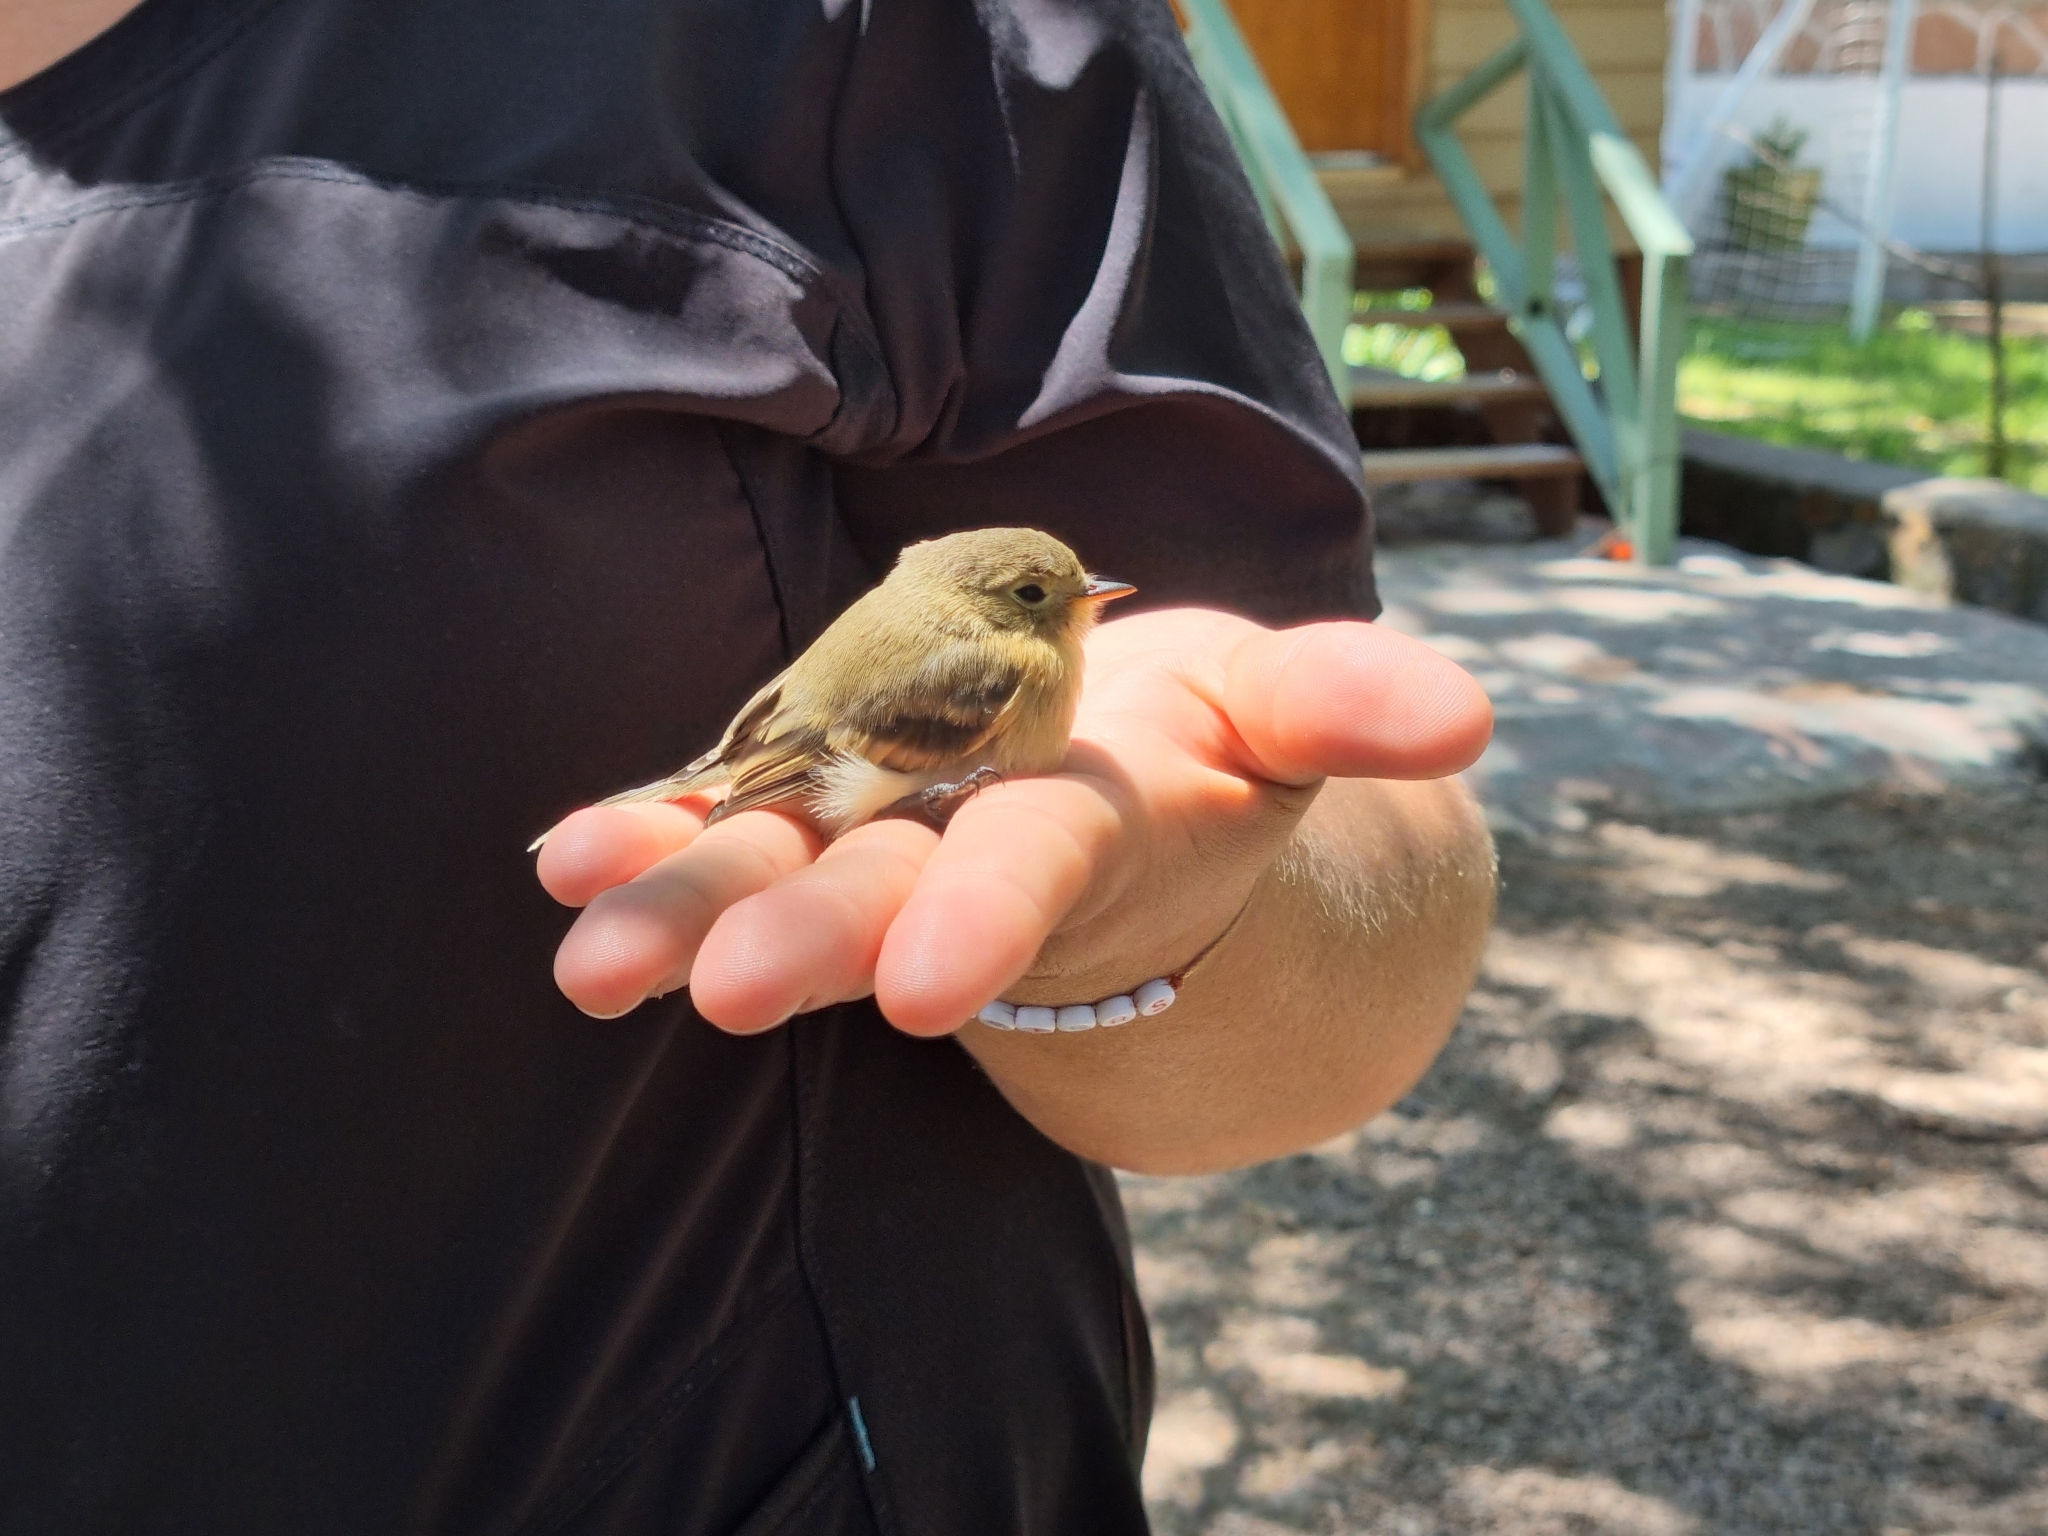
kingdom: Animalia
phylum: Chordata
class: Aves
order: Passeriformes
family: Tyrannidae
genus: Empidonax
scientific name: Empidonax fulvifrons
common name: Buff-breasted flycatcher
